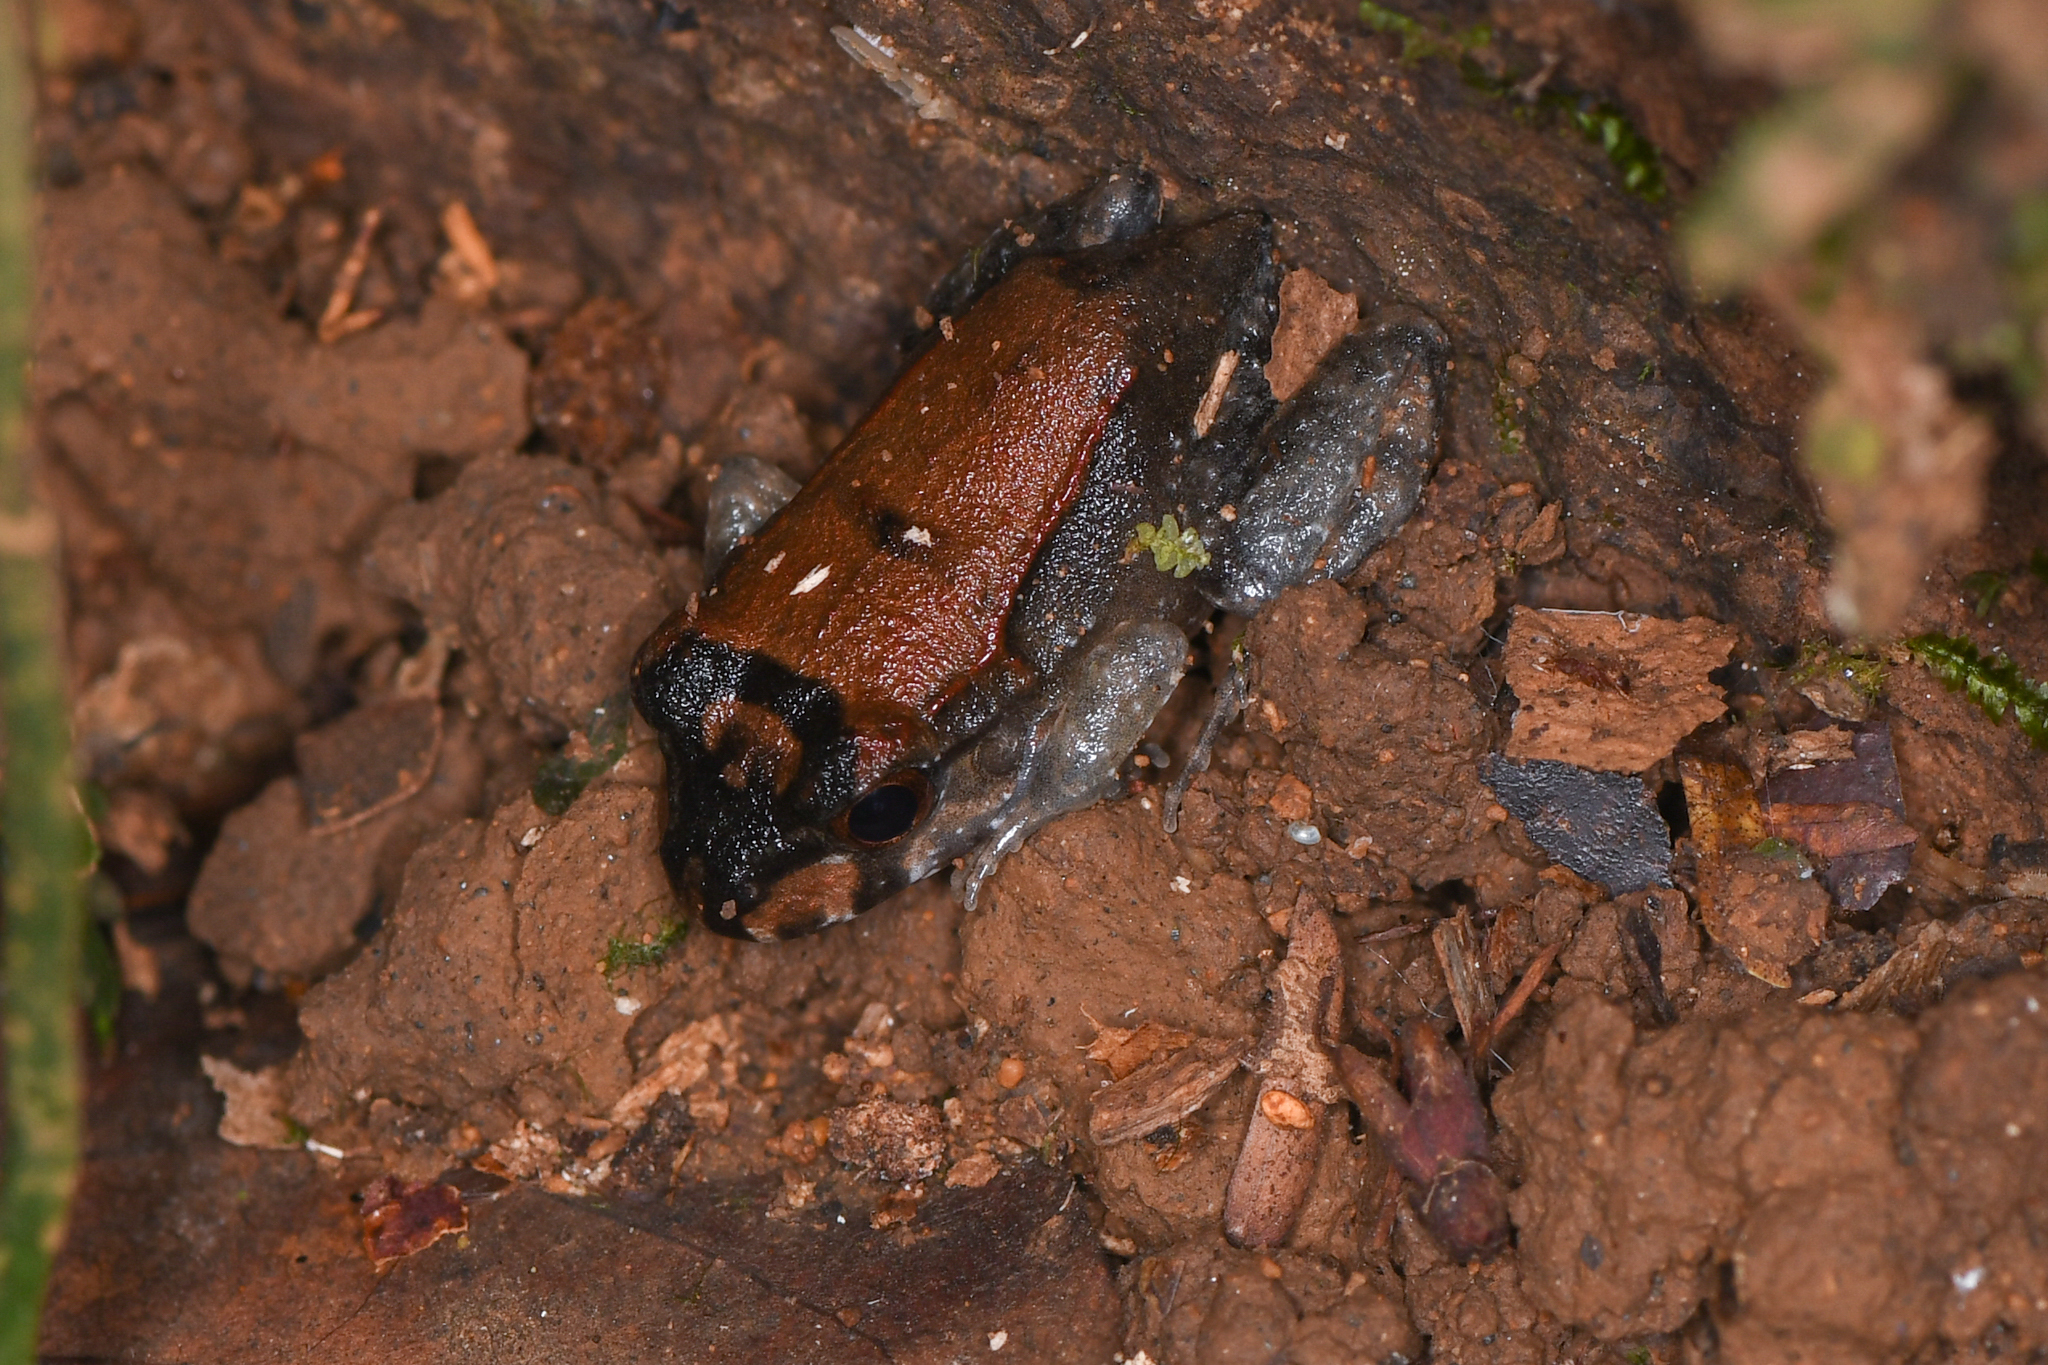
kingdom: Animalia
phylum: Chordata
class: Amphibia
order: Anura
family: Leptodactylidae
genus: Leptodactylus
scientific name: Leptodactylus savagei
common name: Savage's thin-toed frog
